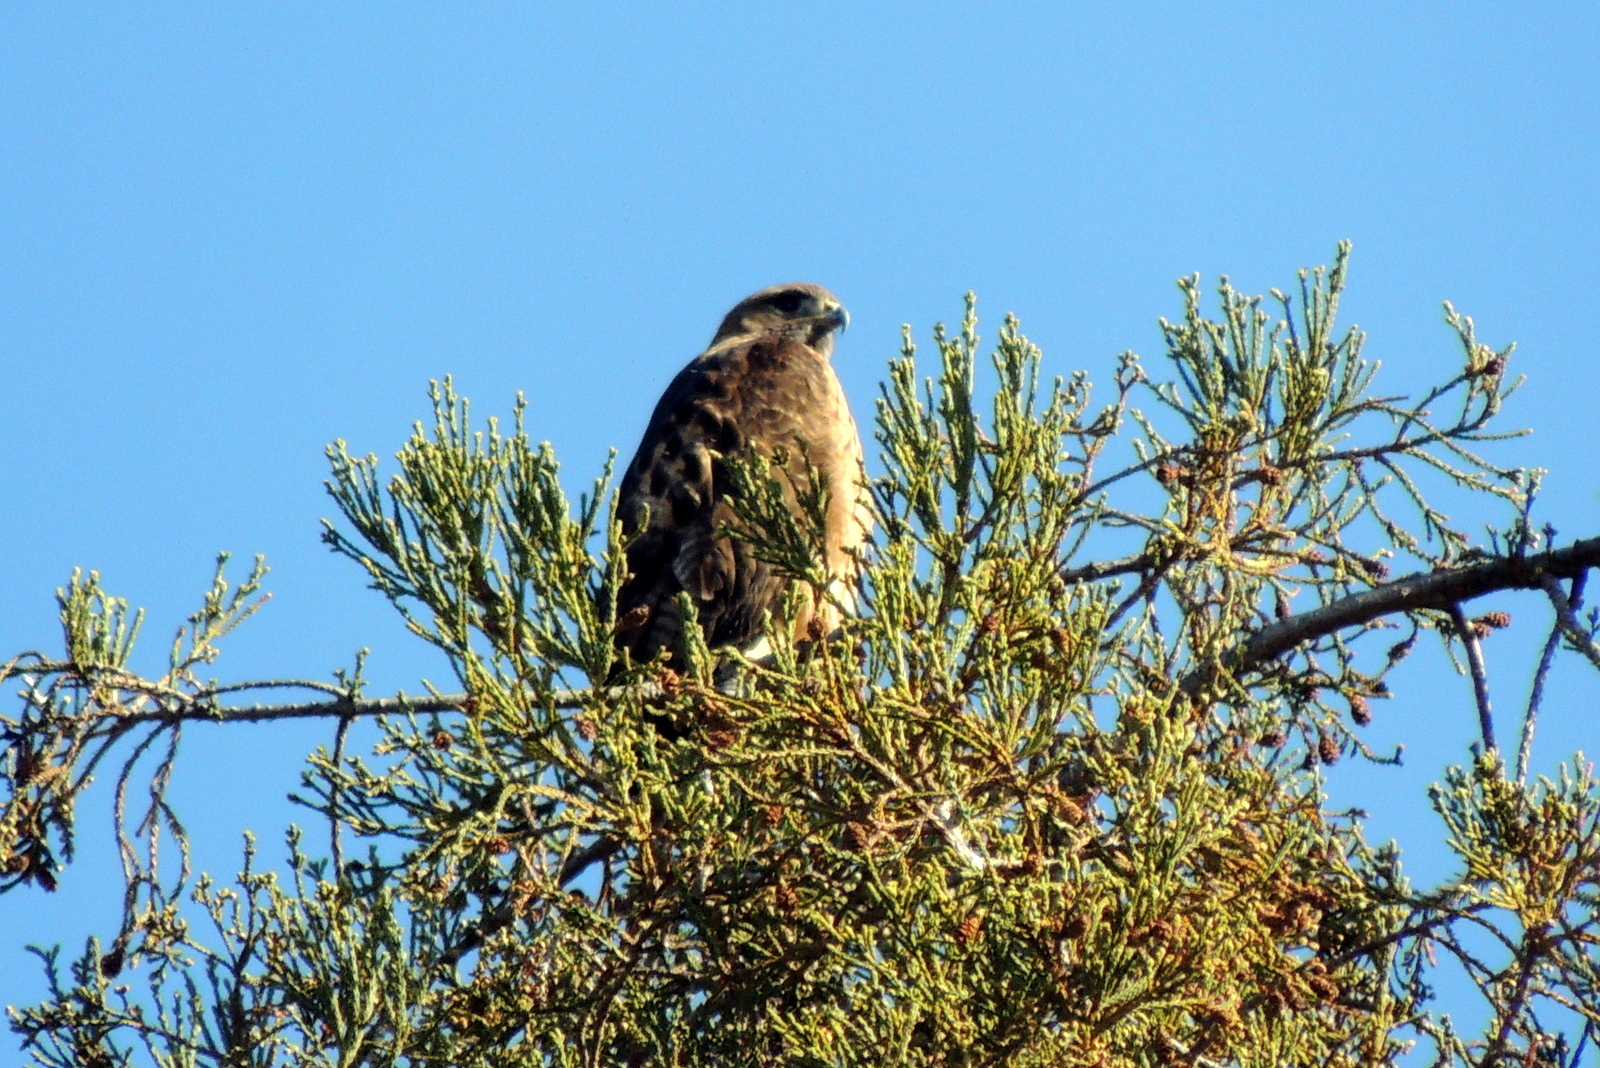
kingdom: Animalia
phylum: Chordata
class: Aves
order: Accipitriformes
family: Accipitridae
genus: Buteo
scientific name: Buteo jamaicensis
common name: Red-tailed hawk
